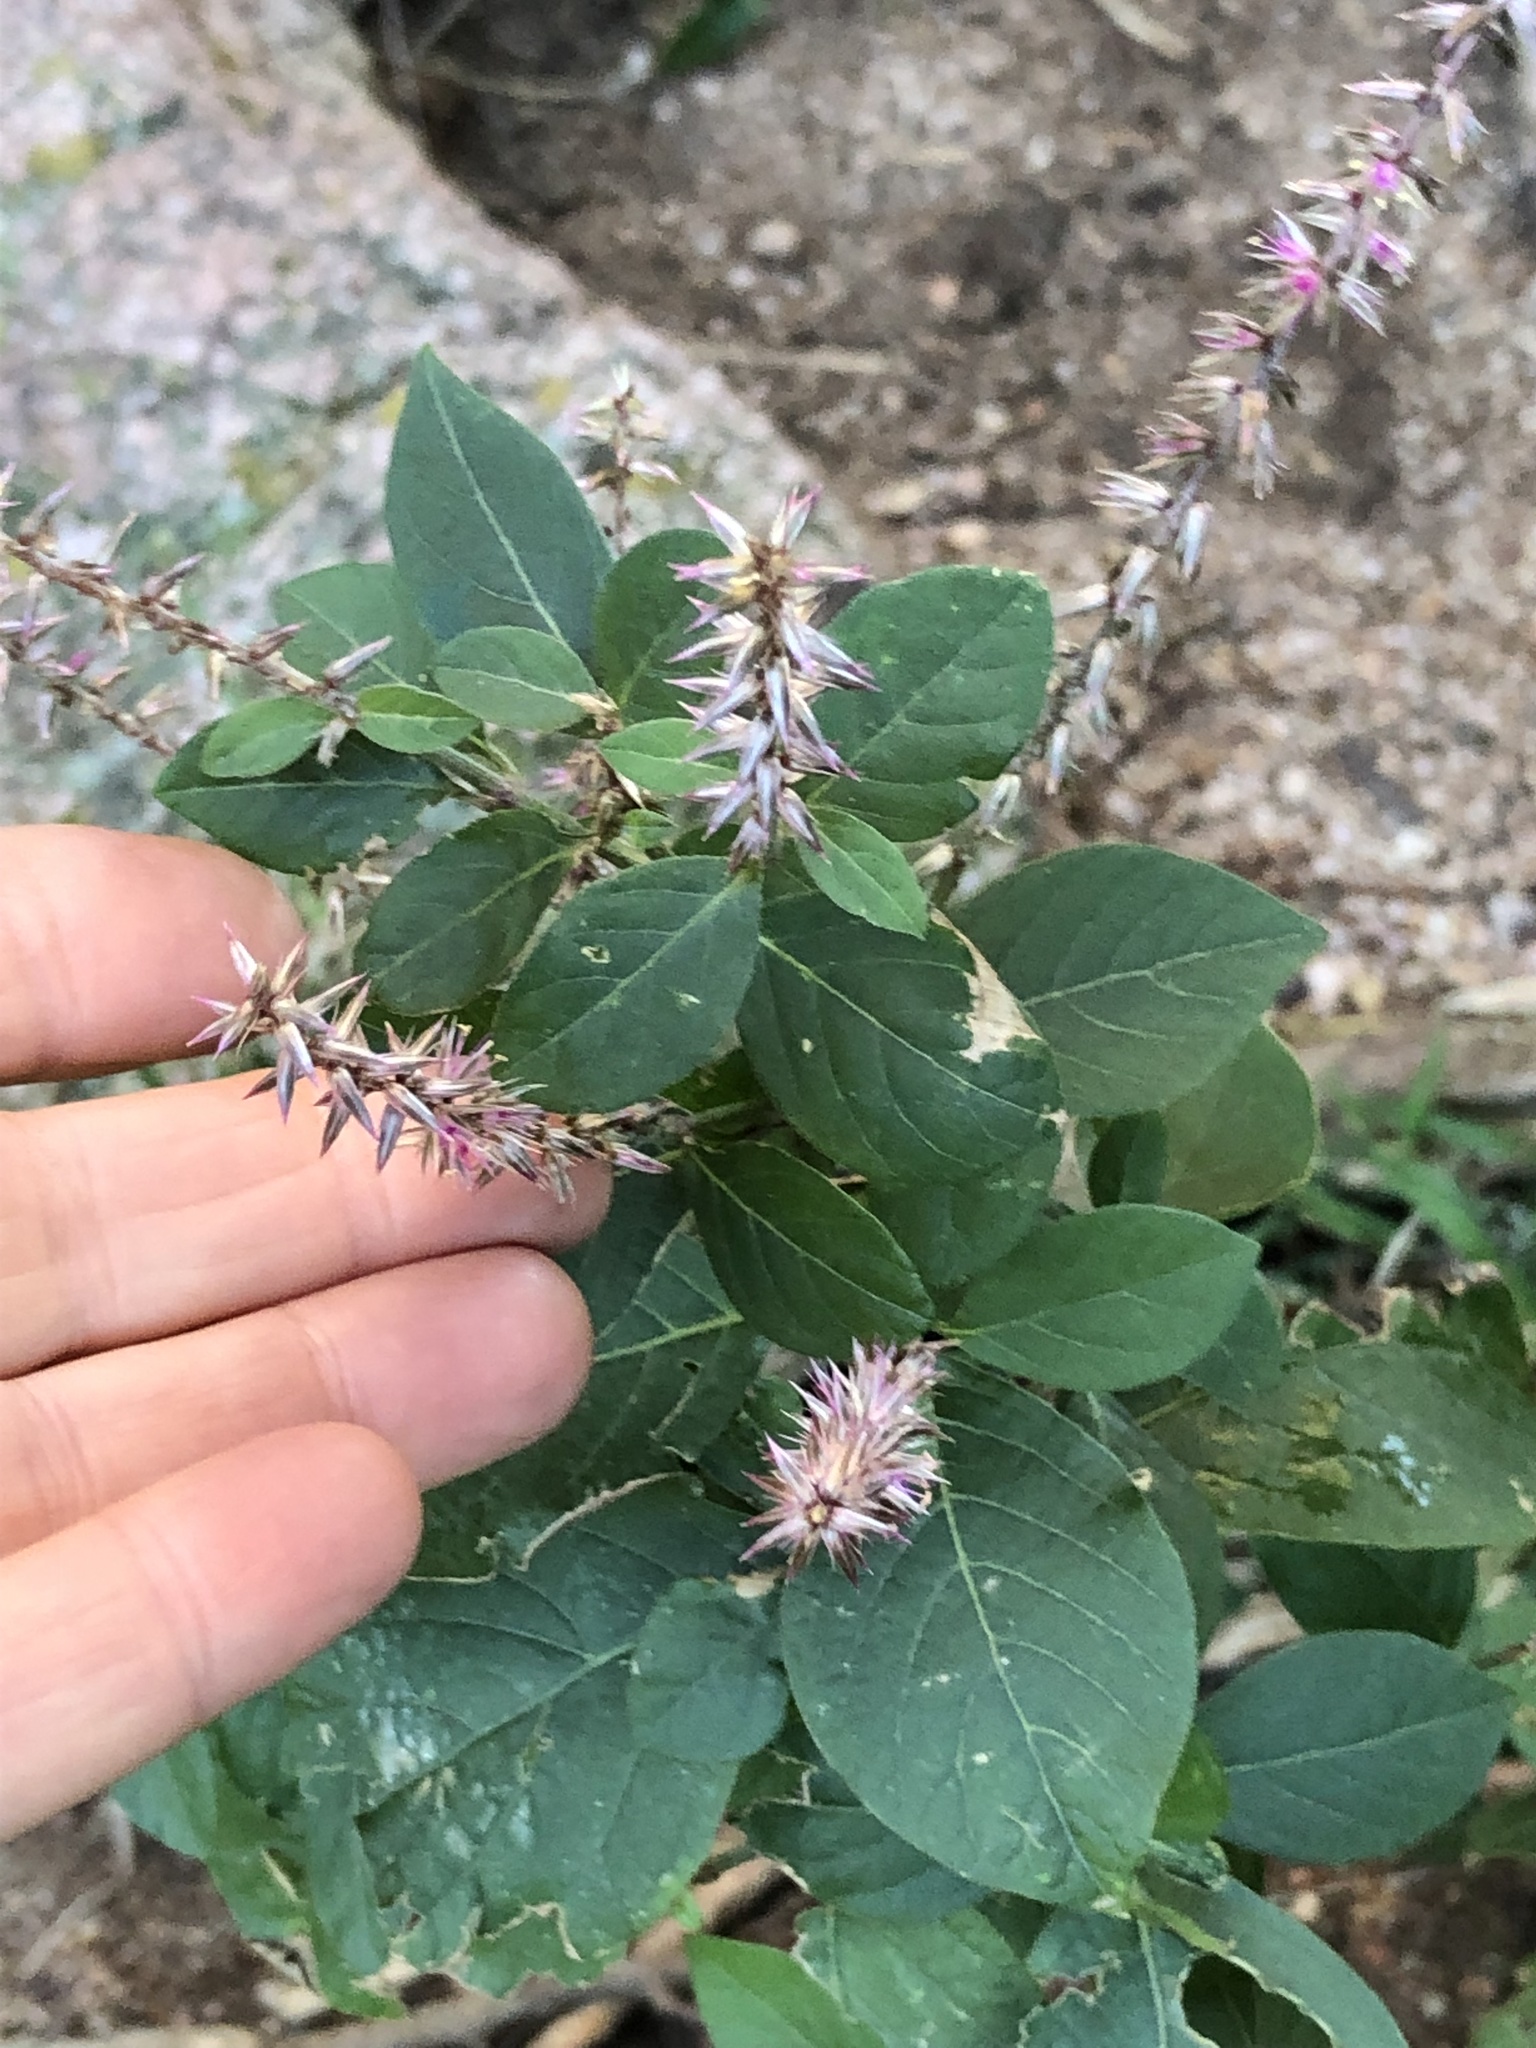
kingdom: Plantae
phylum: Tracheophyta
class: Magnoliopsida
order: Caryophyllales
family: Amaranthaceae
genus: Achyranthes
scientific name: Achyranthes aspera
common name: Devil's horsewhip
